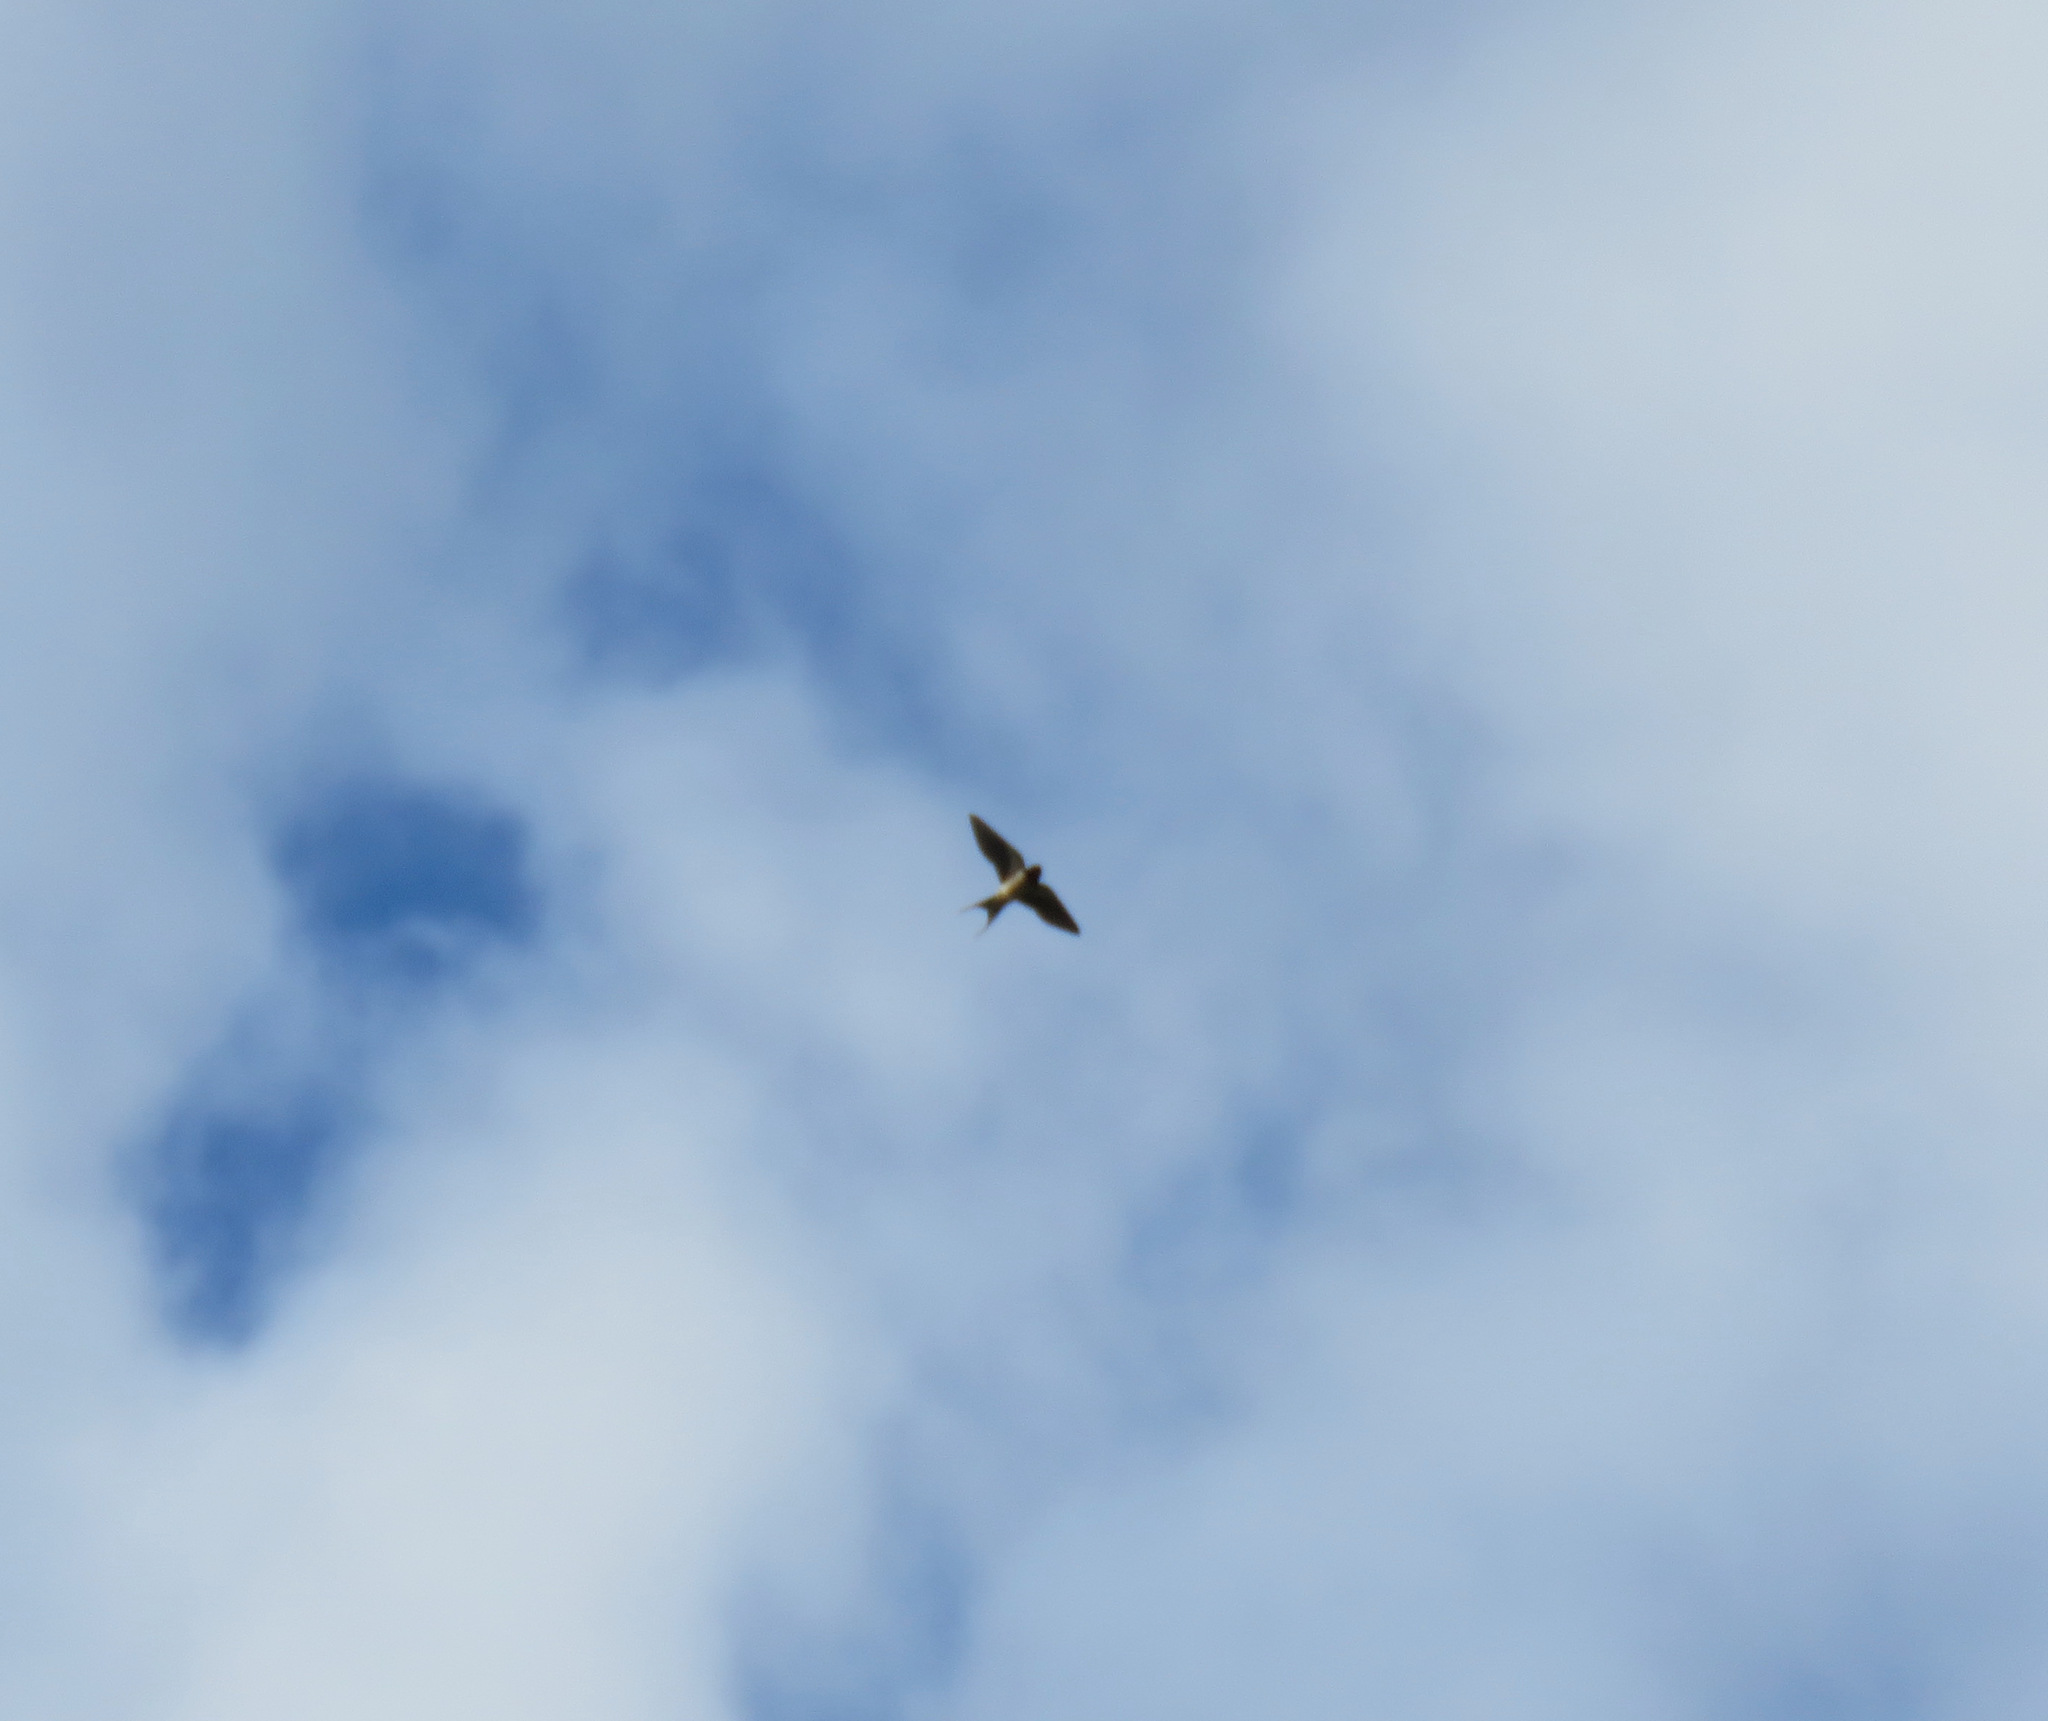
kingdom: Animalia
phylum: Chordata
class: Aves
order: Passeriformes
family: Hirundinidae
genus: Hirundo
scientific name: Hirundo rustica
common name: Barn swallow
